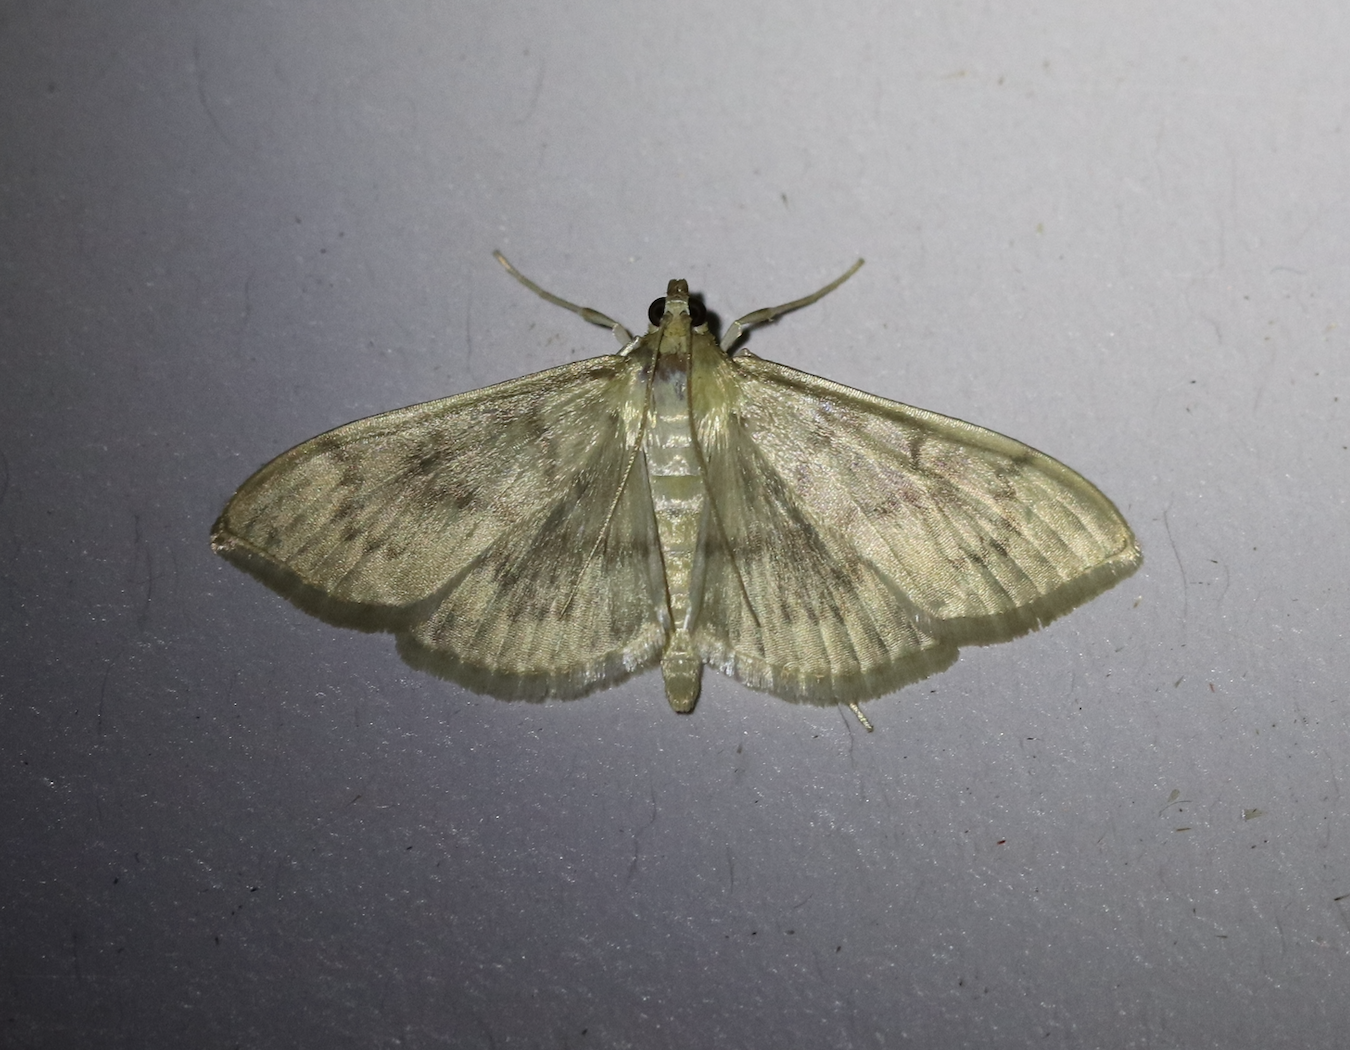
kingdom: Animalia
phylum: Arthropoda
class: Insecta
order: Lepidoptera
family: Crambidae
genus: Patania
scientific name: Patania ruralis
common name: Mother of pearl
